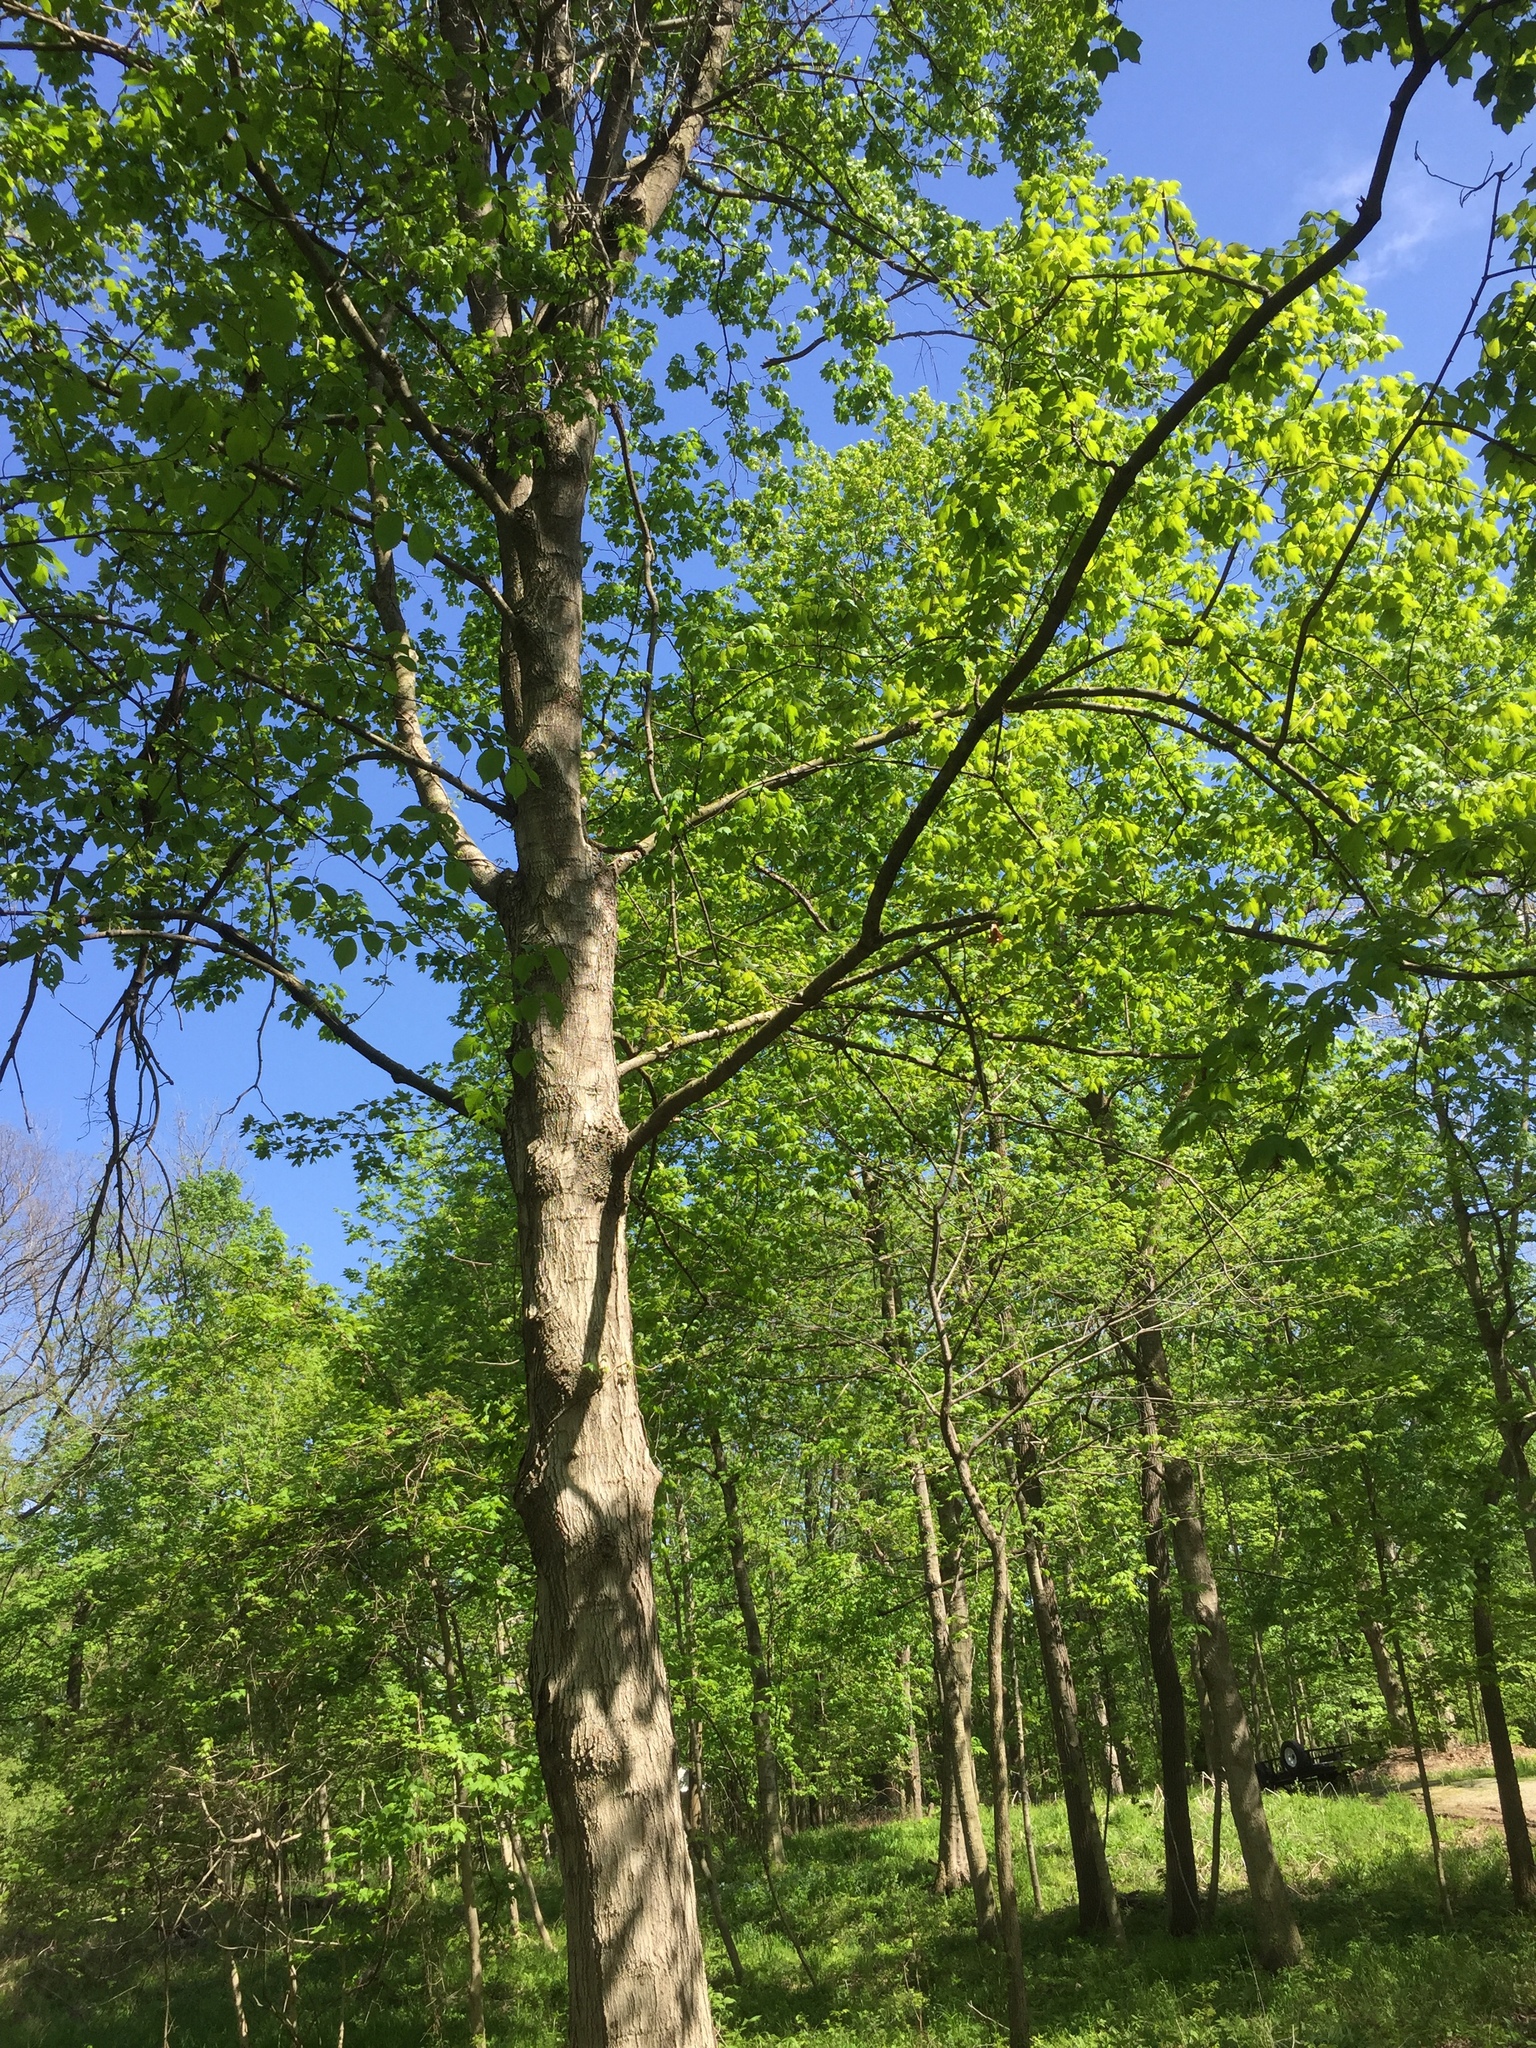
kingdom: Plantae
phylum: Tracheophyta
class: Magnoliopsida
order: Sapindales
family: Sapindaceae
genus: Acer
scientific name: Acer nigrum
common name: Black maple
